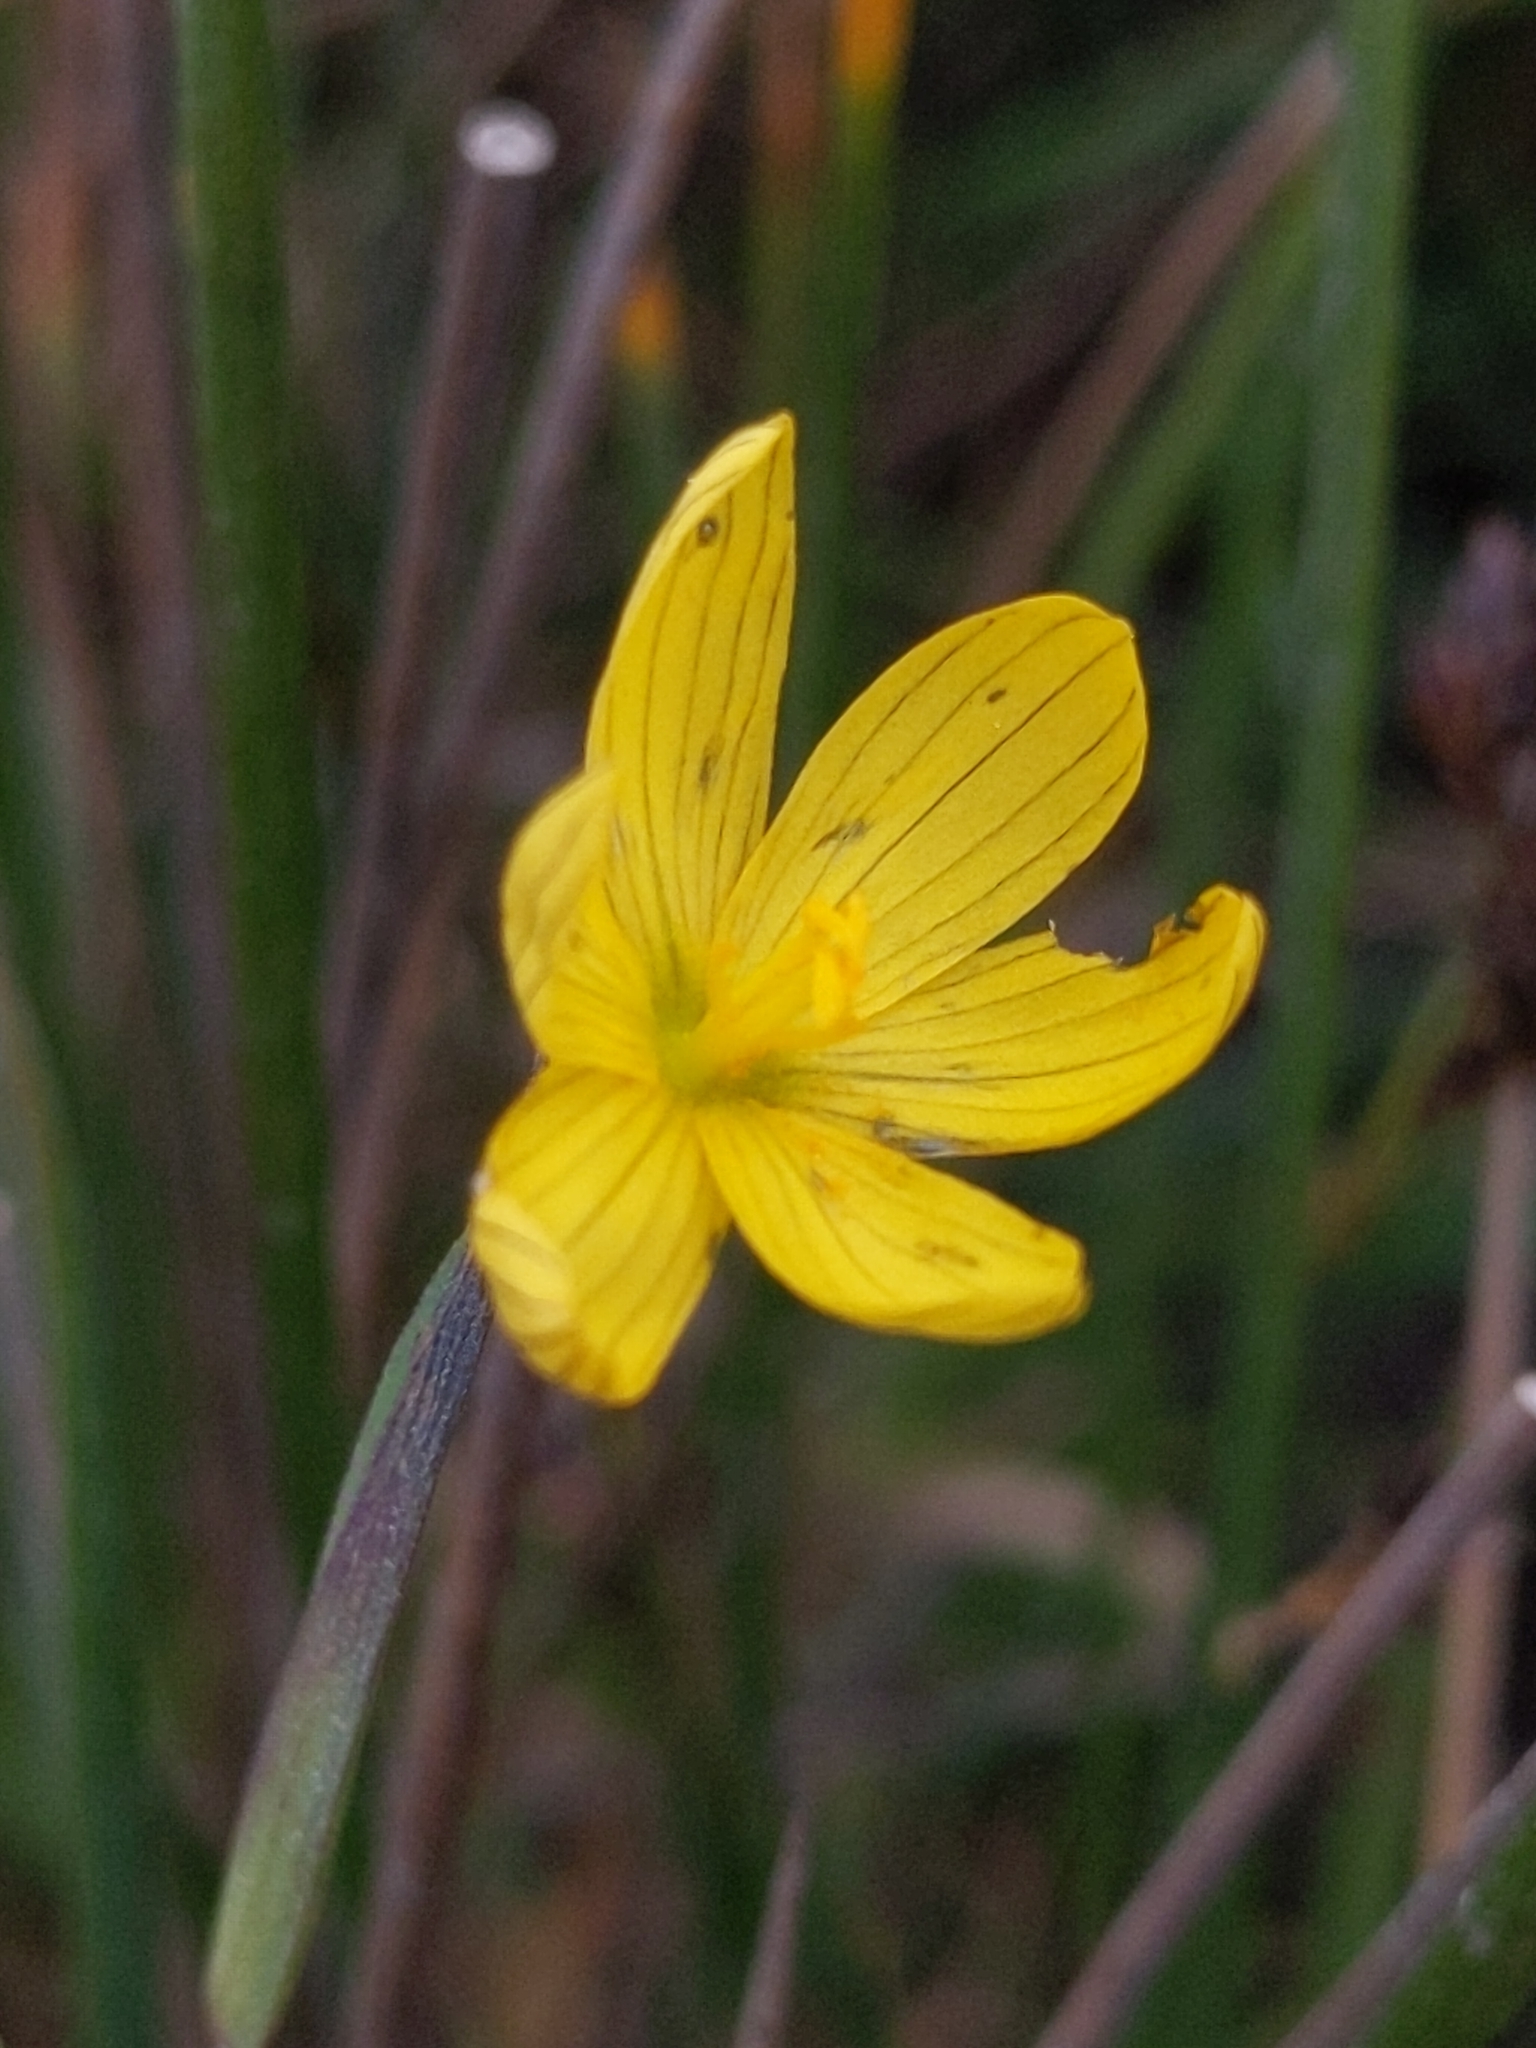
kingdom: Plantae
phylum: Tracheophyta
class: Liliopsida
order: Asparagales
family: Iridaceae
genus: Sisyrinchium
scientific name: Sisyrinchium californicum
